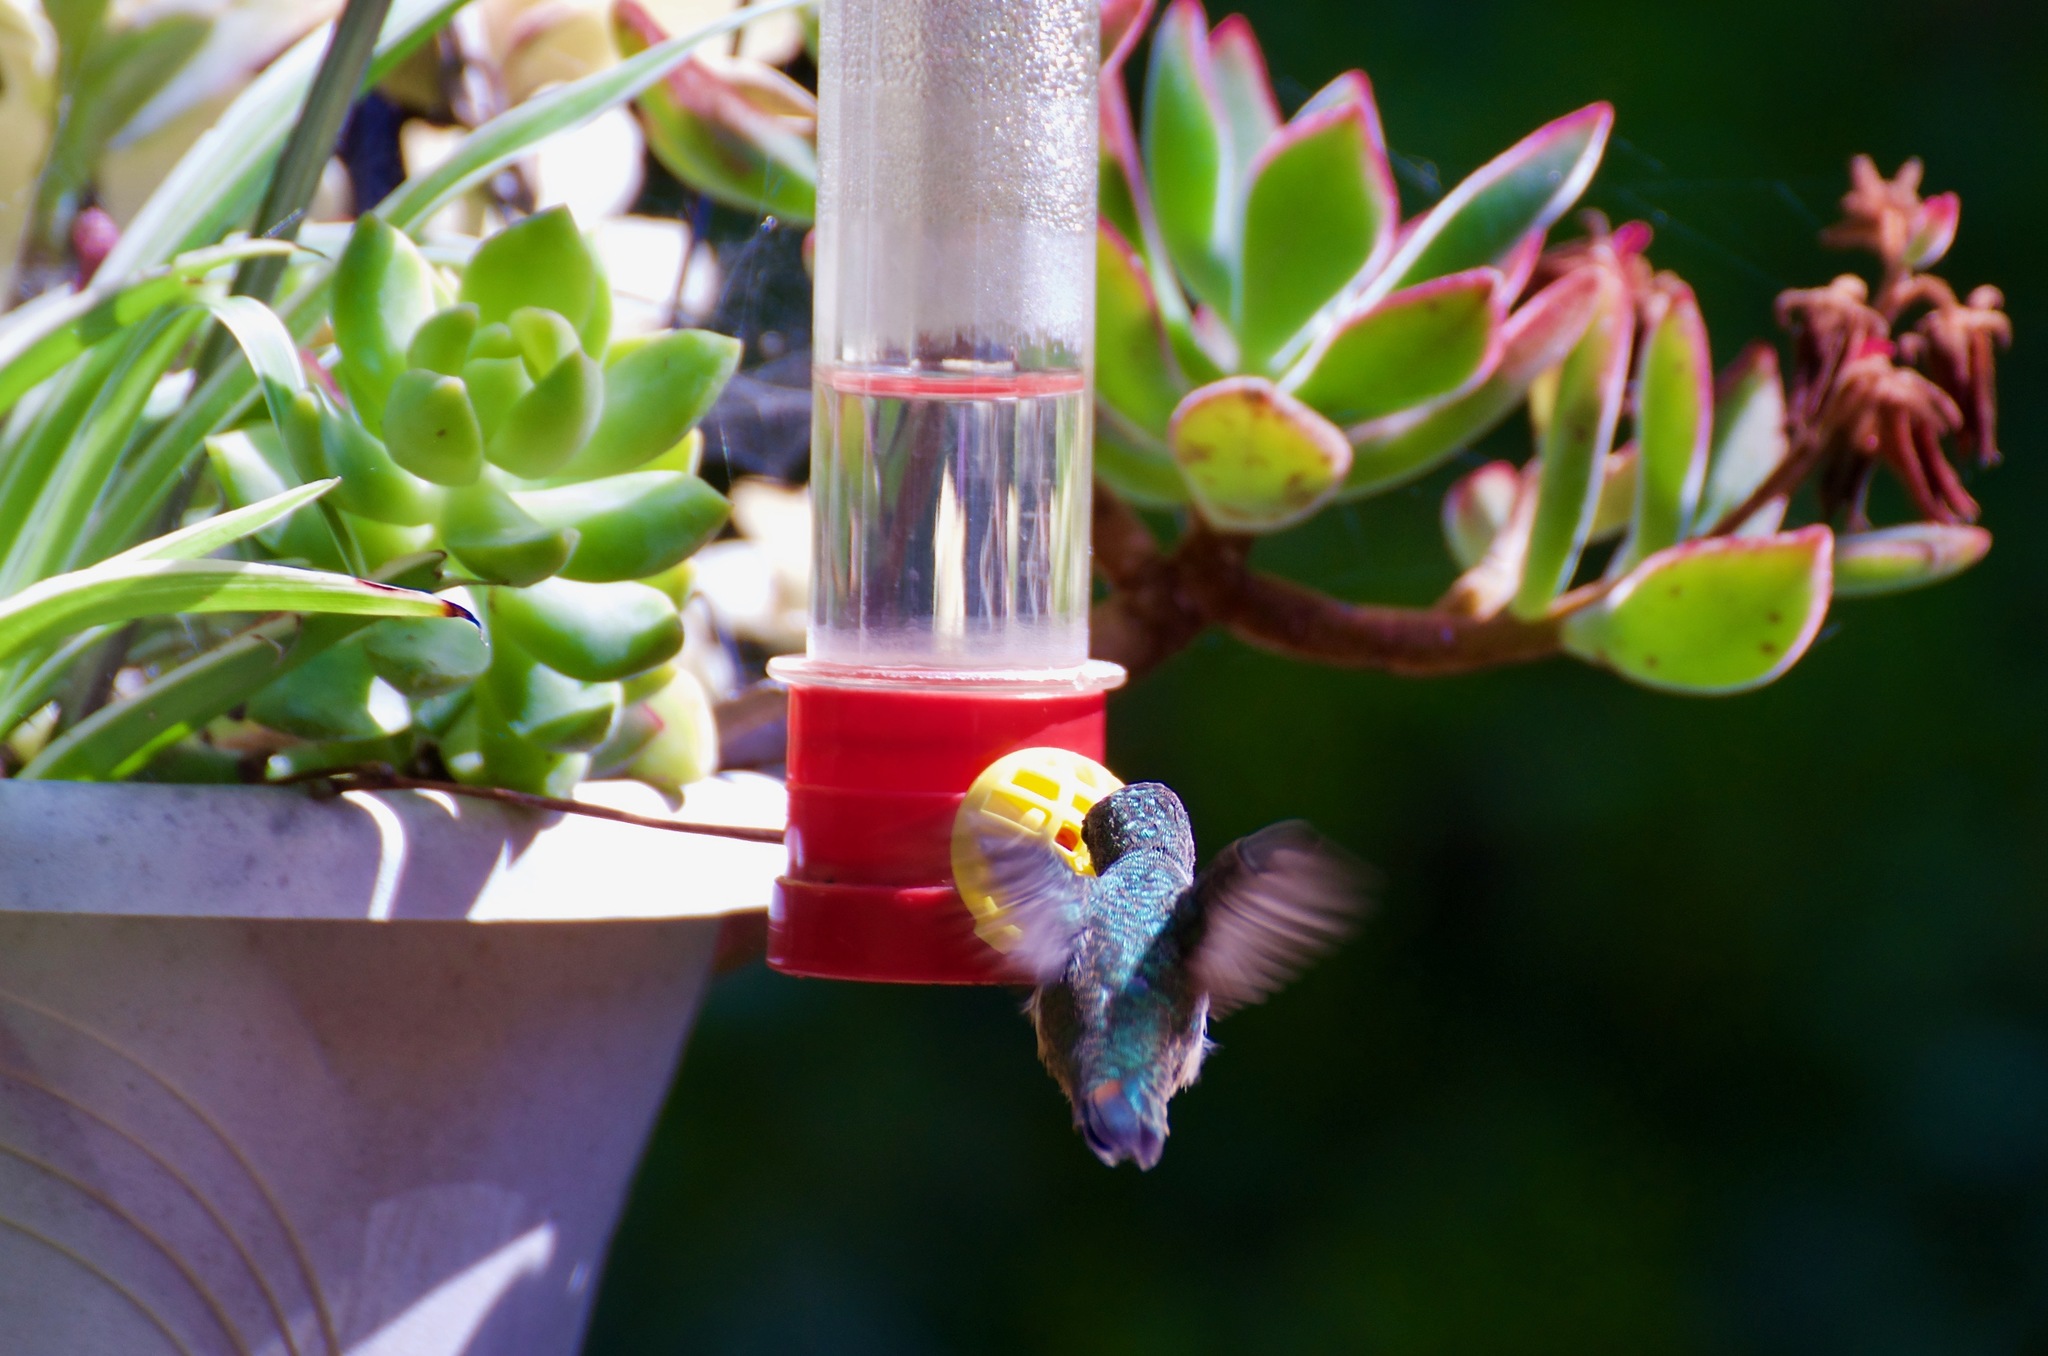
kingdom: Animalia
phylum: Chordata
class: Aves
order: Apodiformes
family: Trochilidae
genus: Selasphorus
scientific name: Selasphorus
